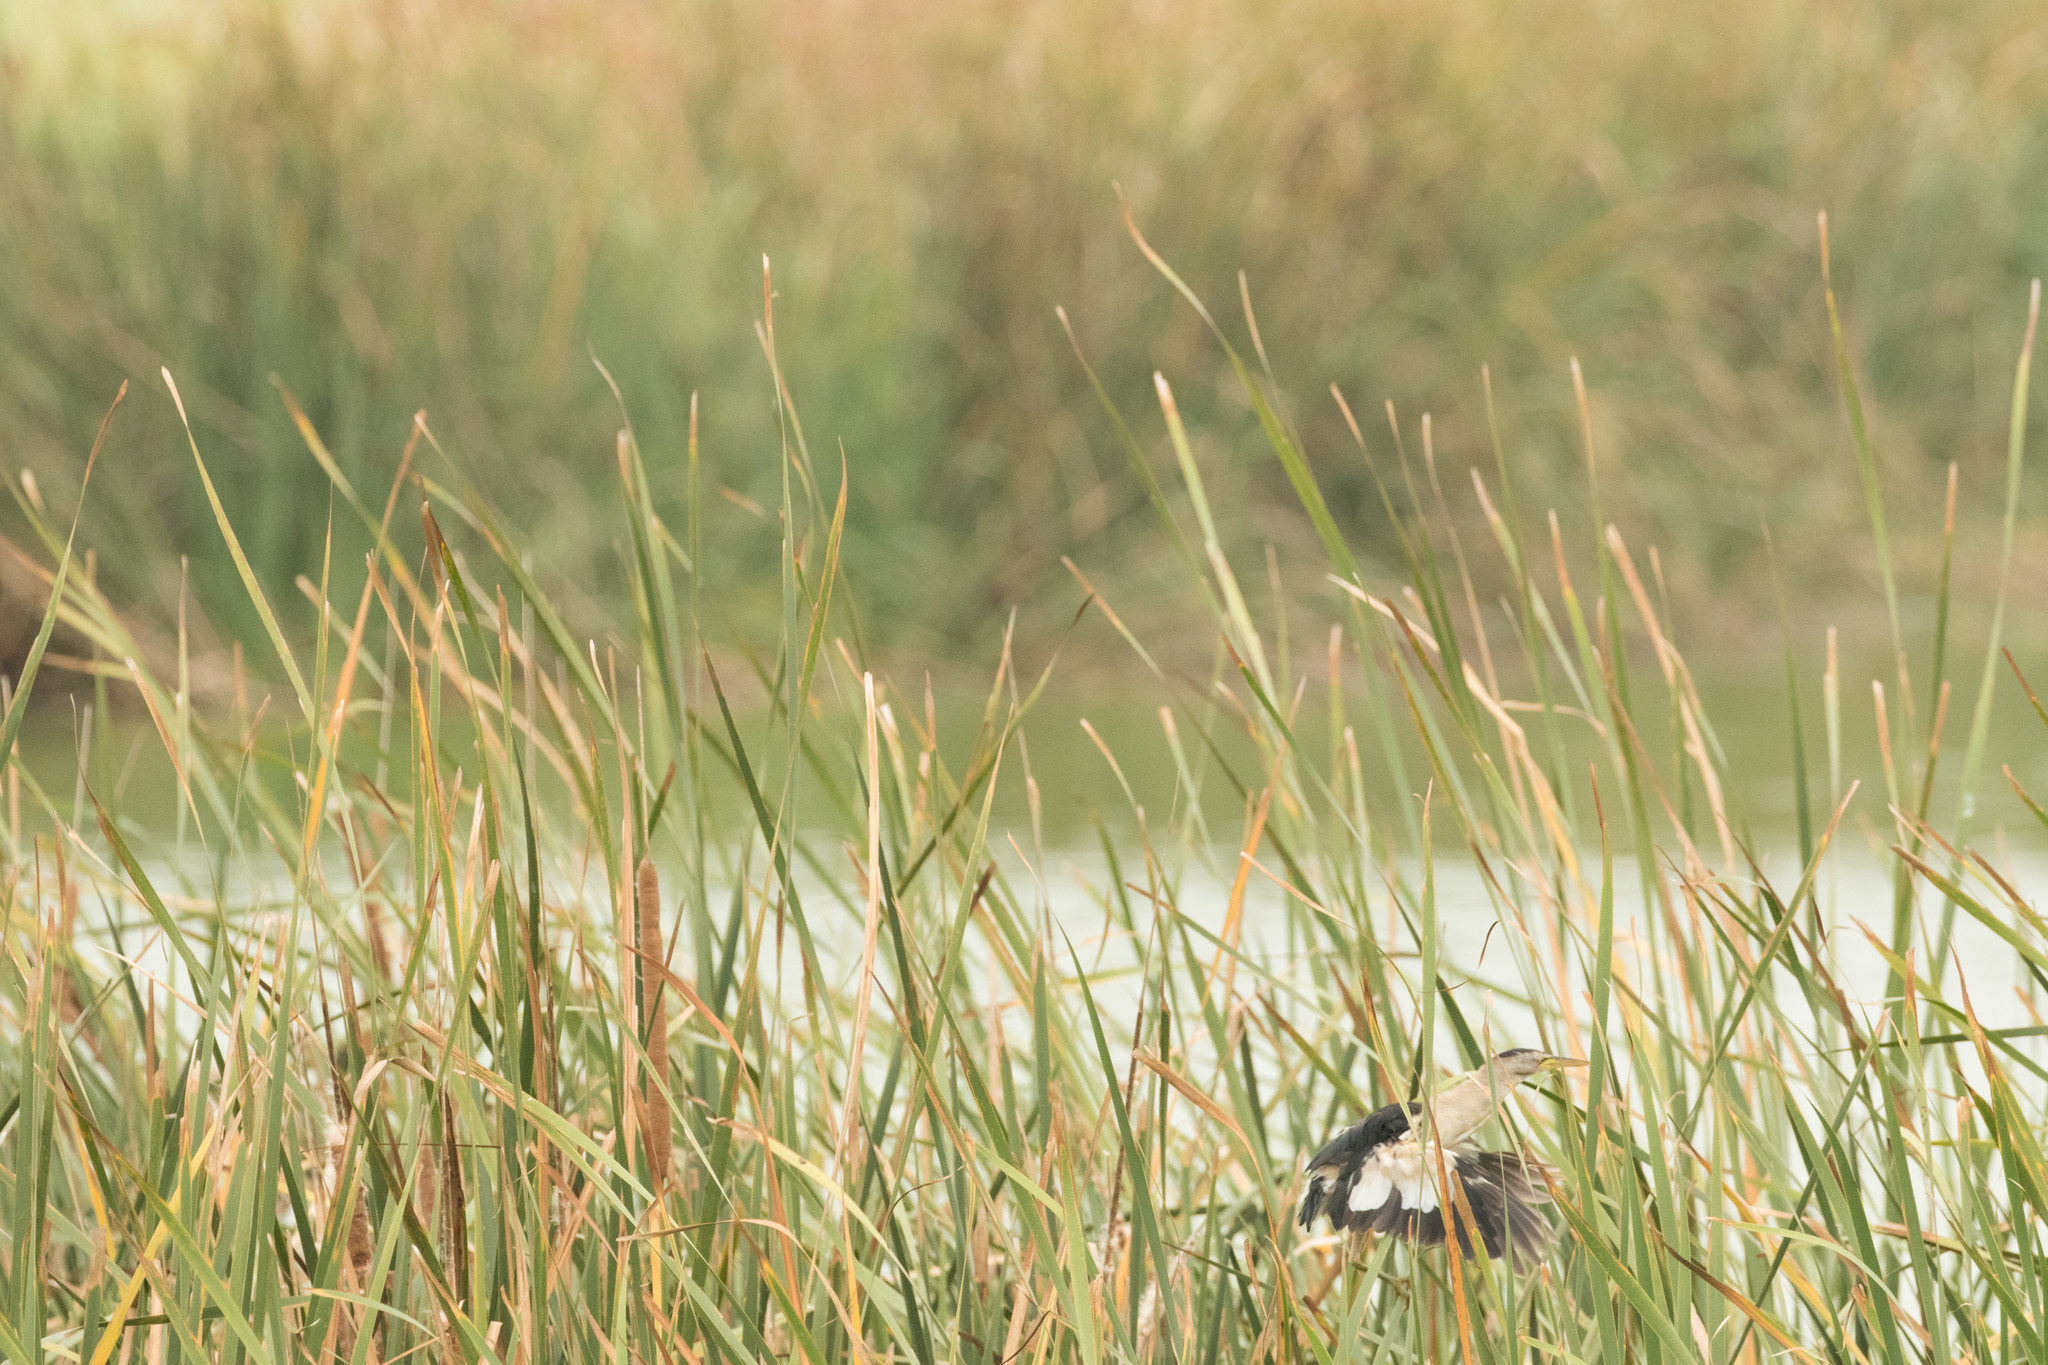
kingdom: Animalia
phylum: Chordata
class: Aves
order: Pelecaniformes
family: Ardeidae
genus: Ixobrychus
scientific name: Ixobrychus minutus
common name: Little bittern
